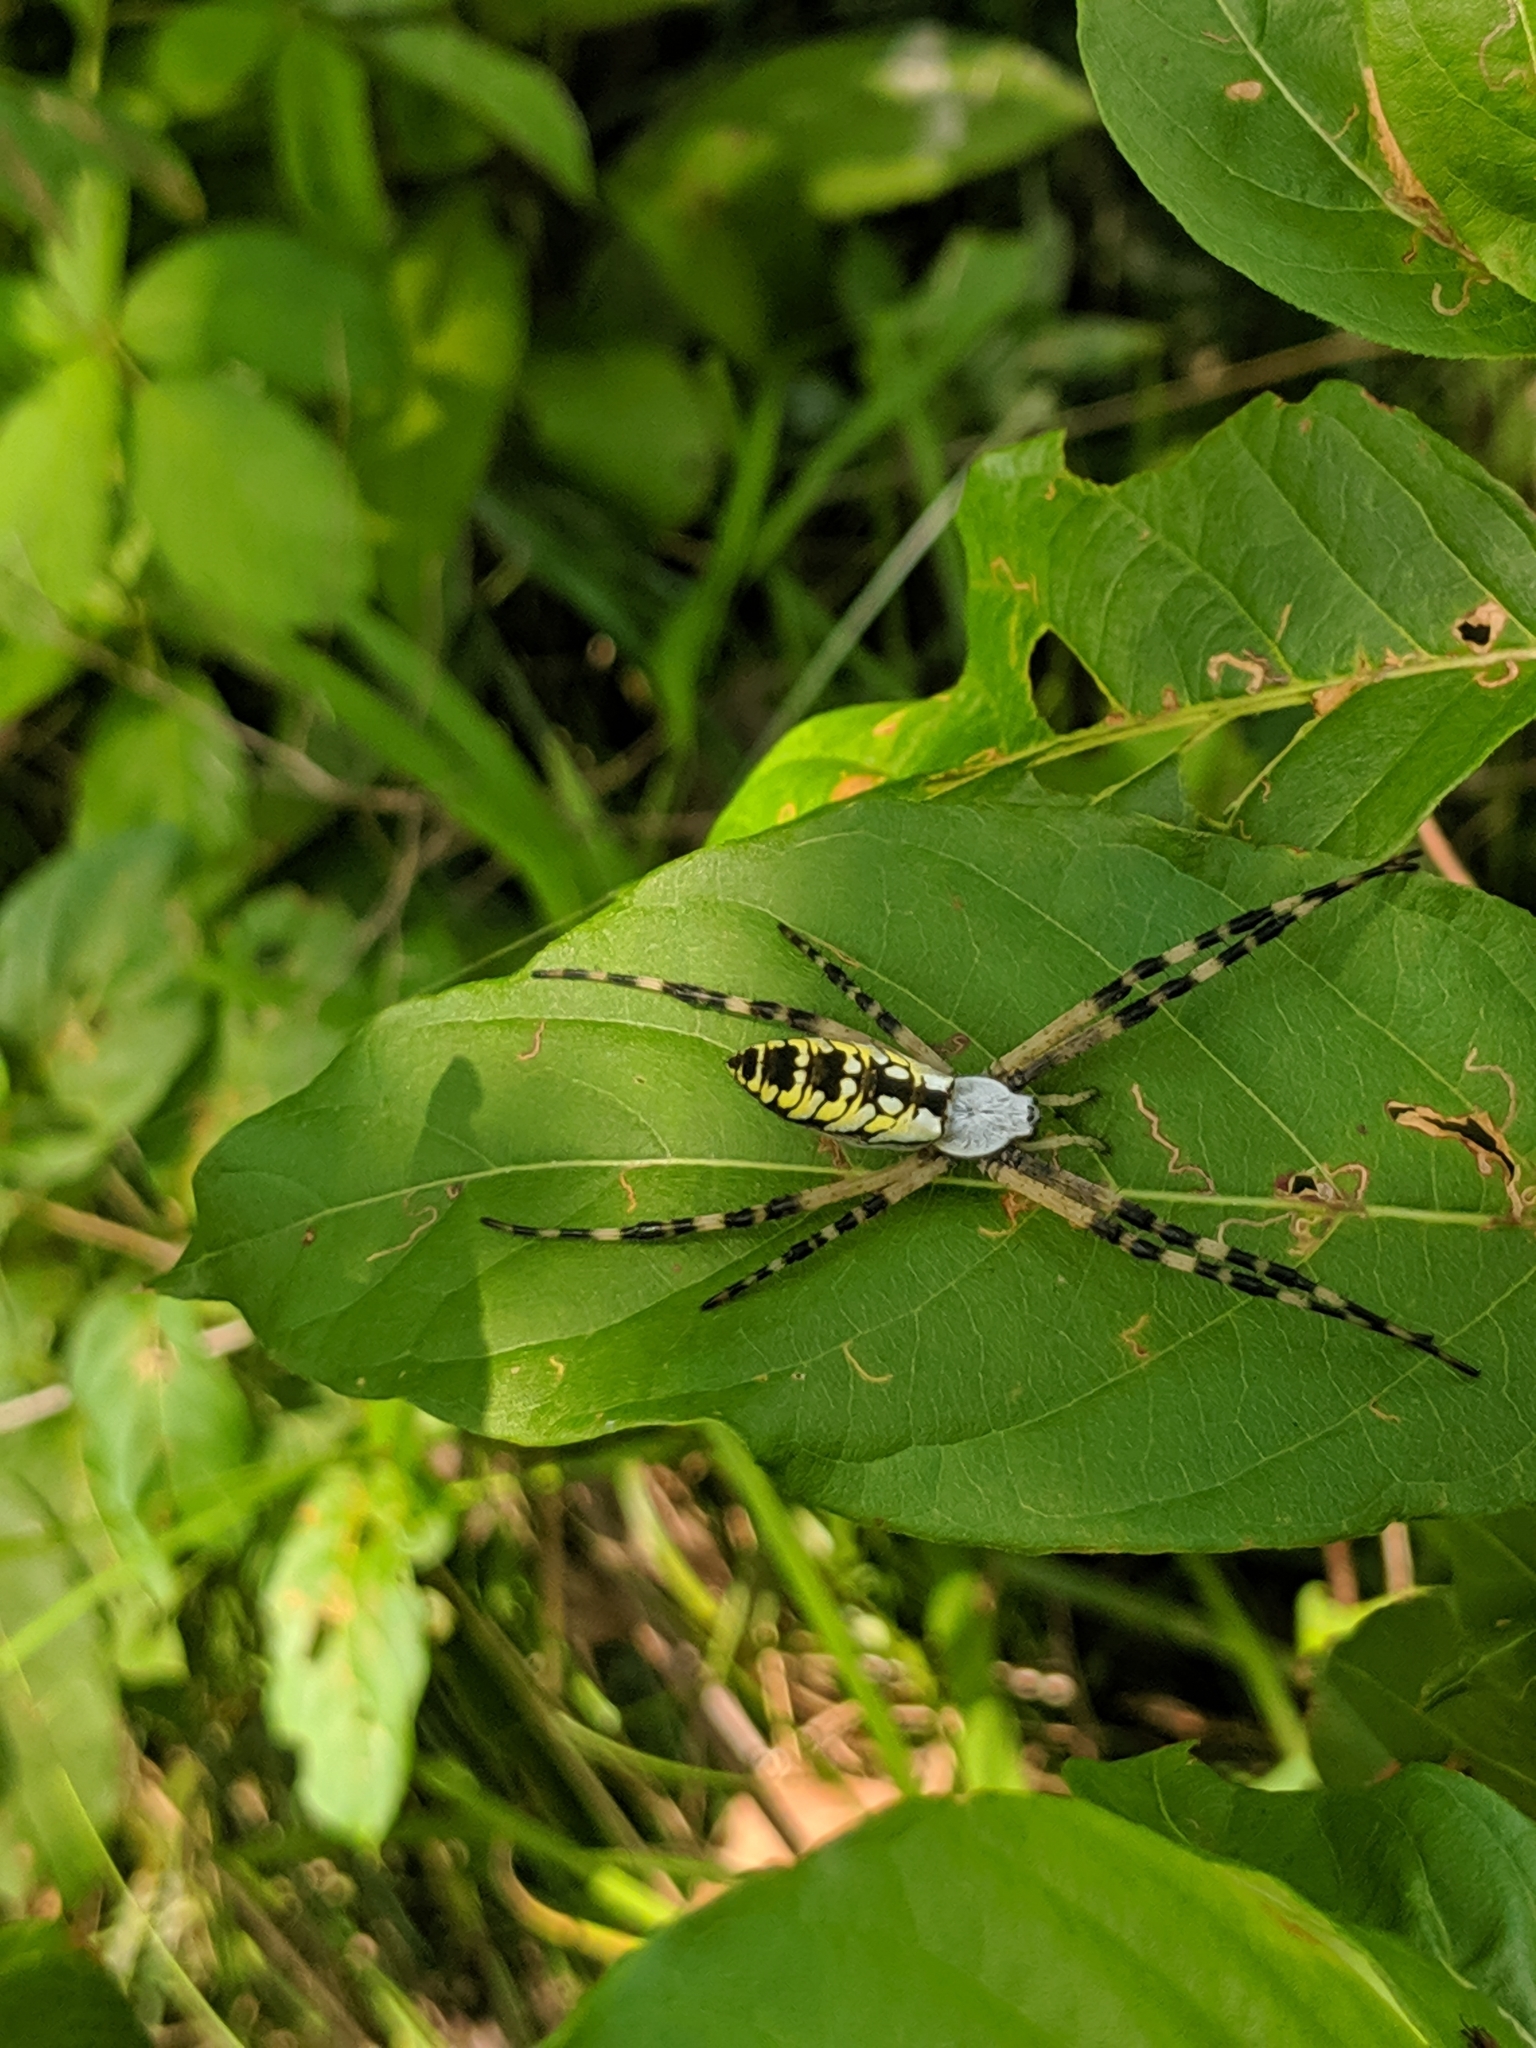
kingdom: Animalia
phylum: Arthropoda
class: Arachnida
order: Araneae
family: Araneidae
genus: Argiope
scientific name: Argiope aurantia
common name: Orb weavers
